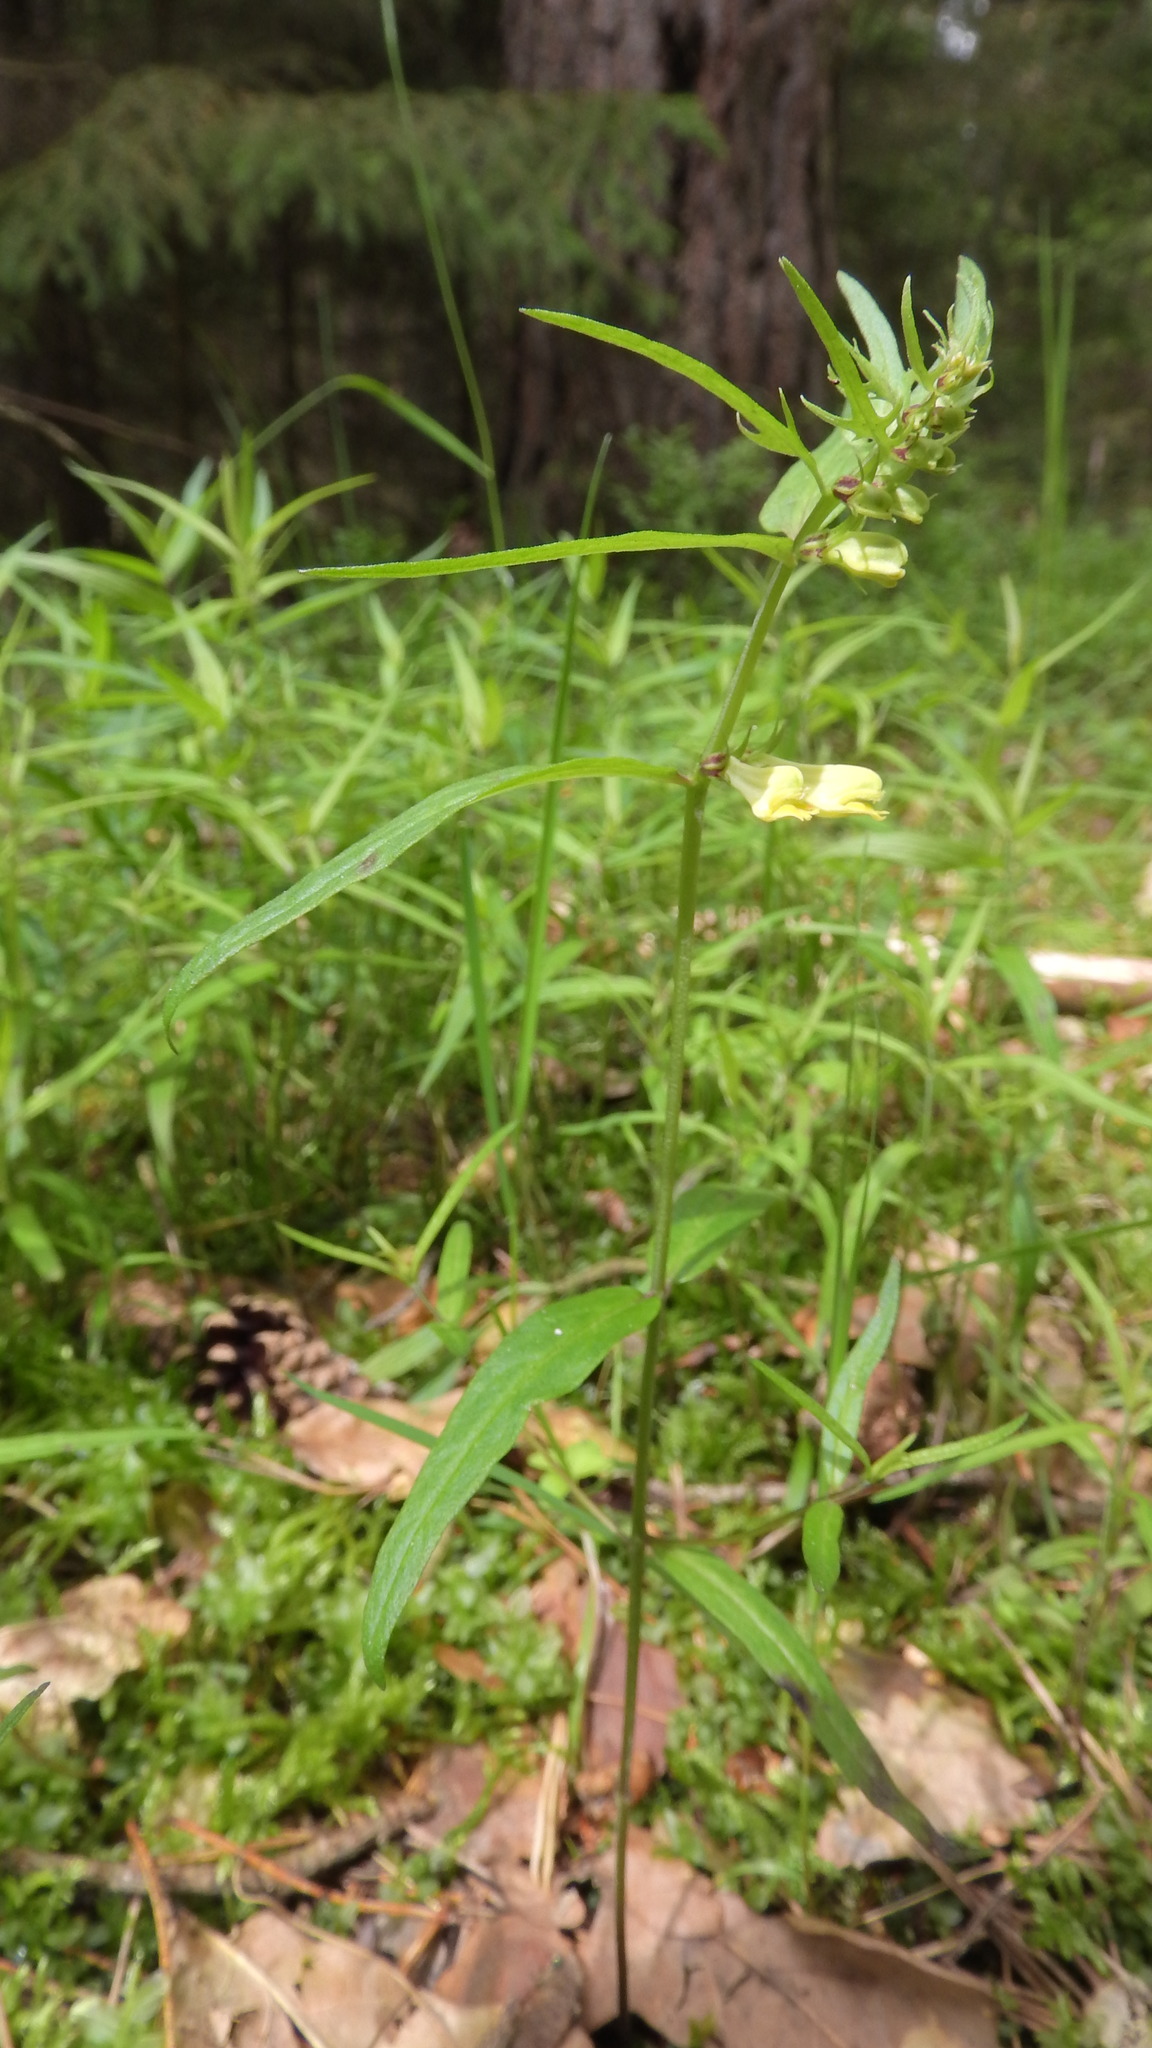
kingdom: Plantae
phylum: Tracheophyta
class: Magnoliopsida
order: Lamiales
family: Orobanchaceae
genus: Melampyrum
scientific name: Melampyrum pratense
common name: Common cow-wheat
